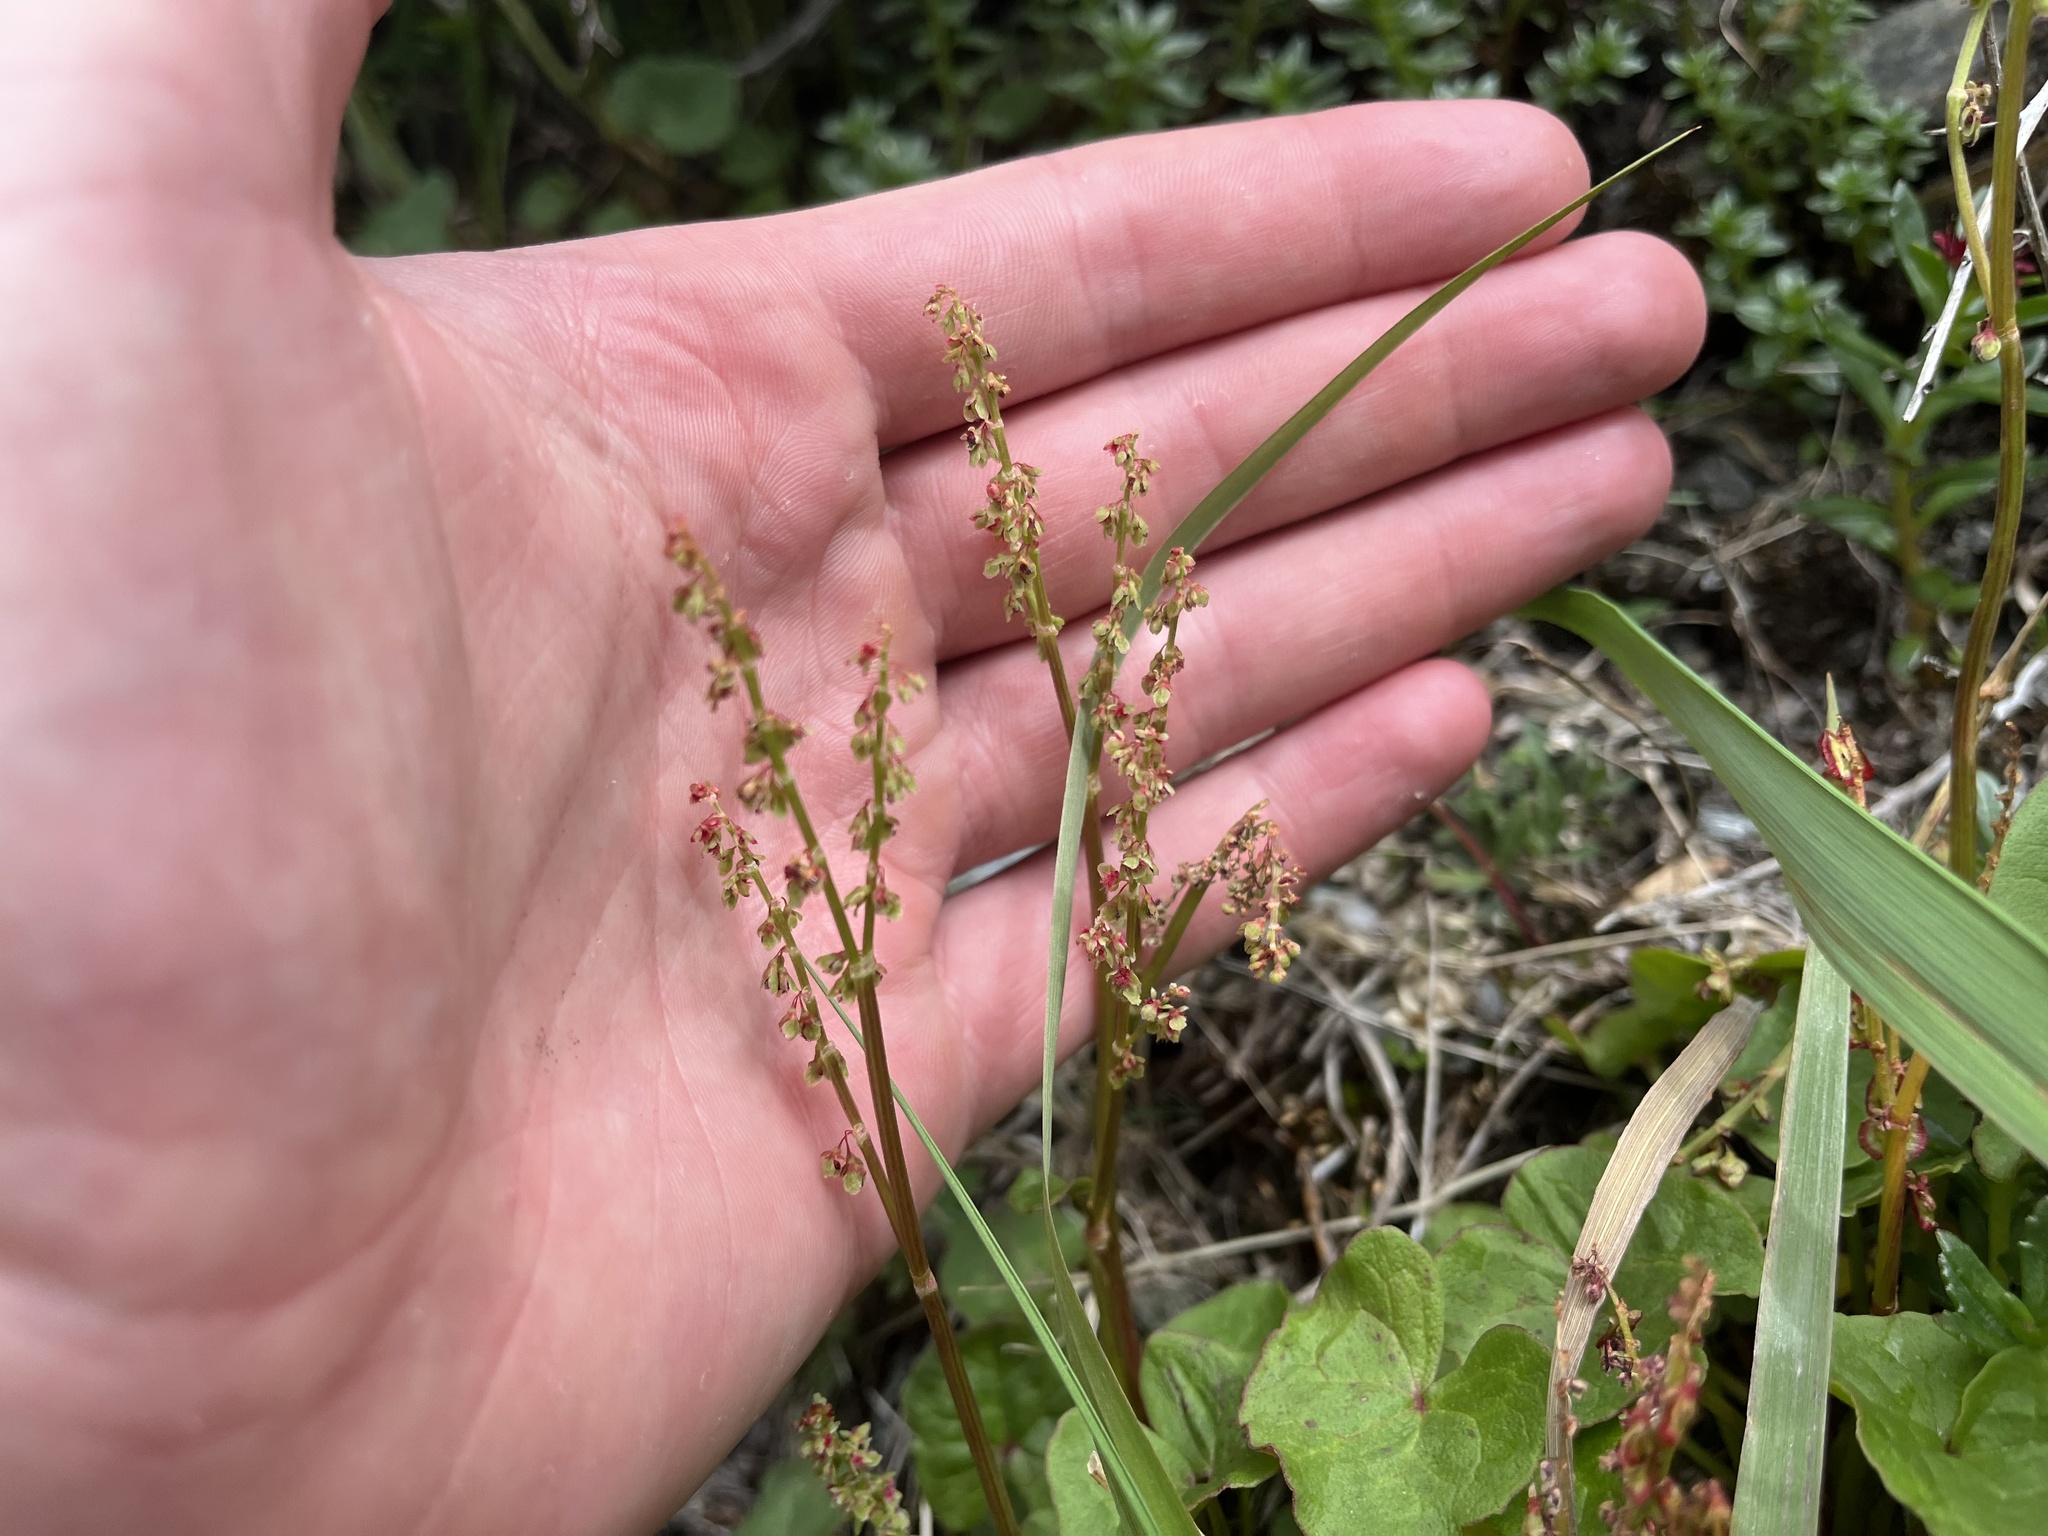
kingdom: Plantae
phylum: Tracheophyta
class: Magnoliopsida
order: Caryophyllales
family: Polygonaceae
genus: Oxyria
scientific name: Oxyria digyna
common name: Alpine mountain-sorrel
